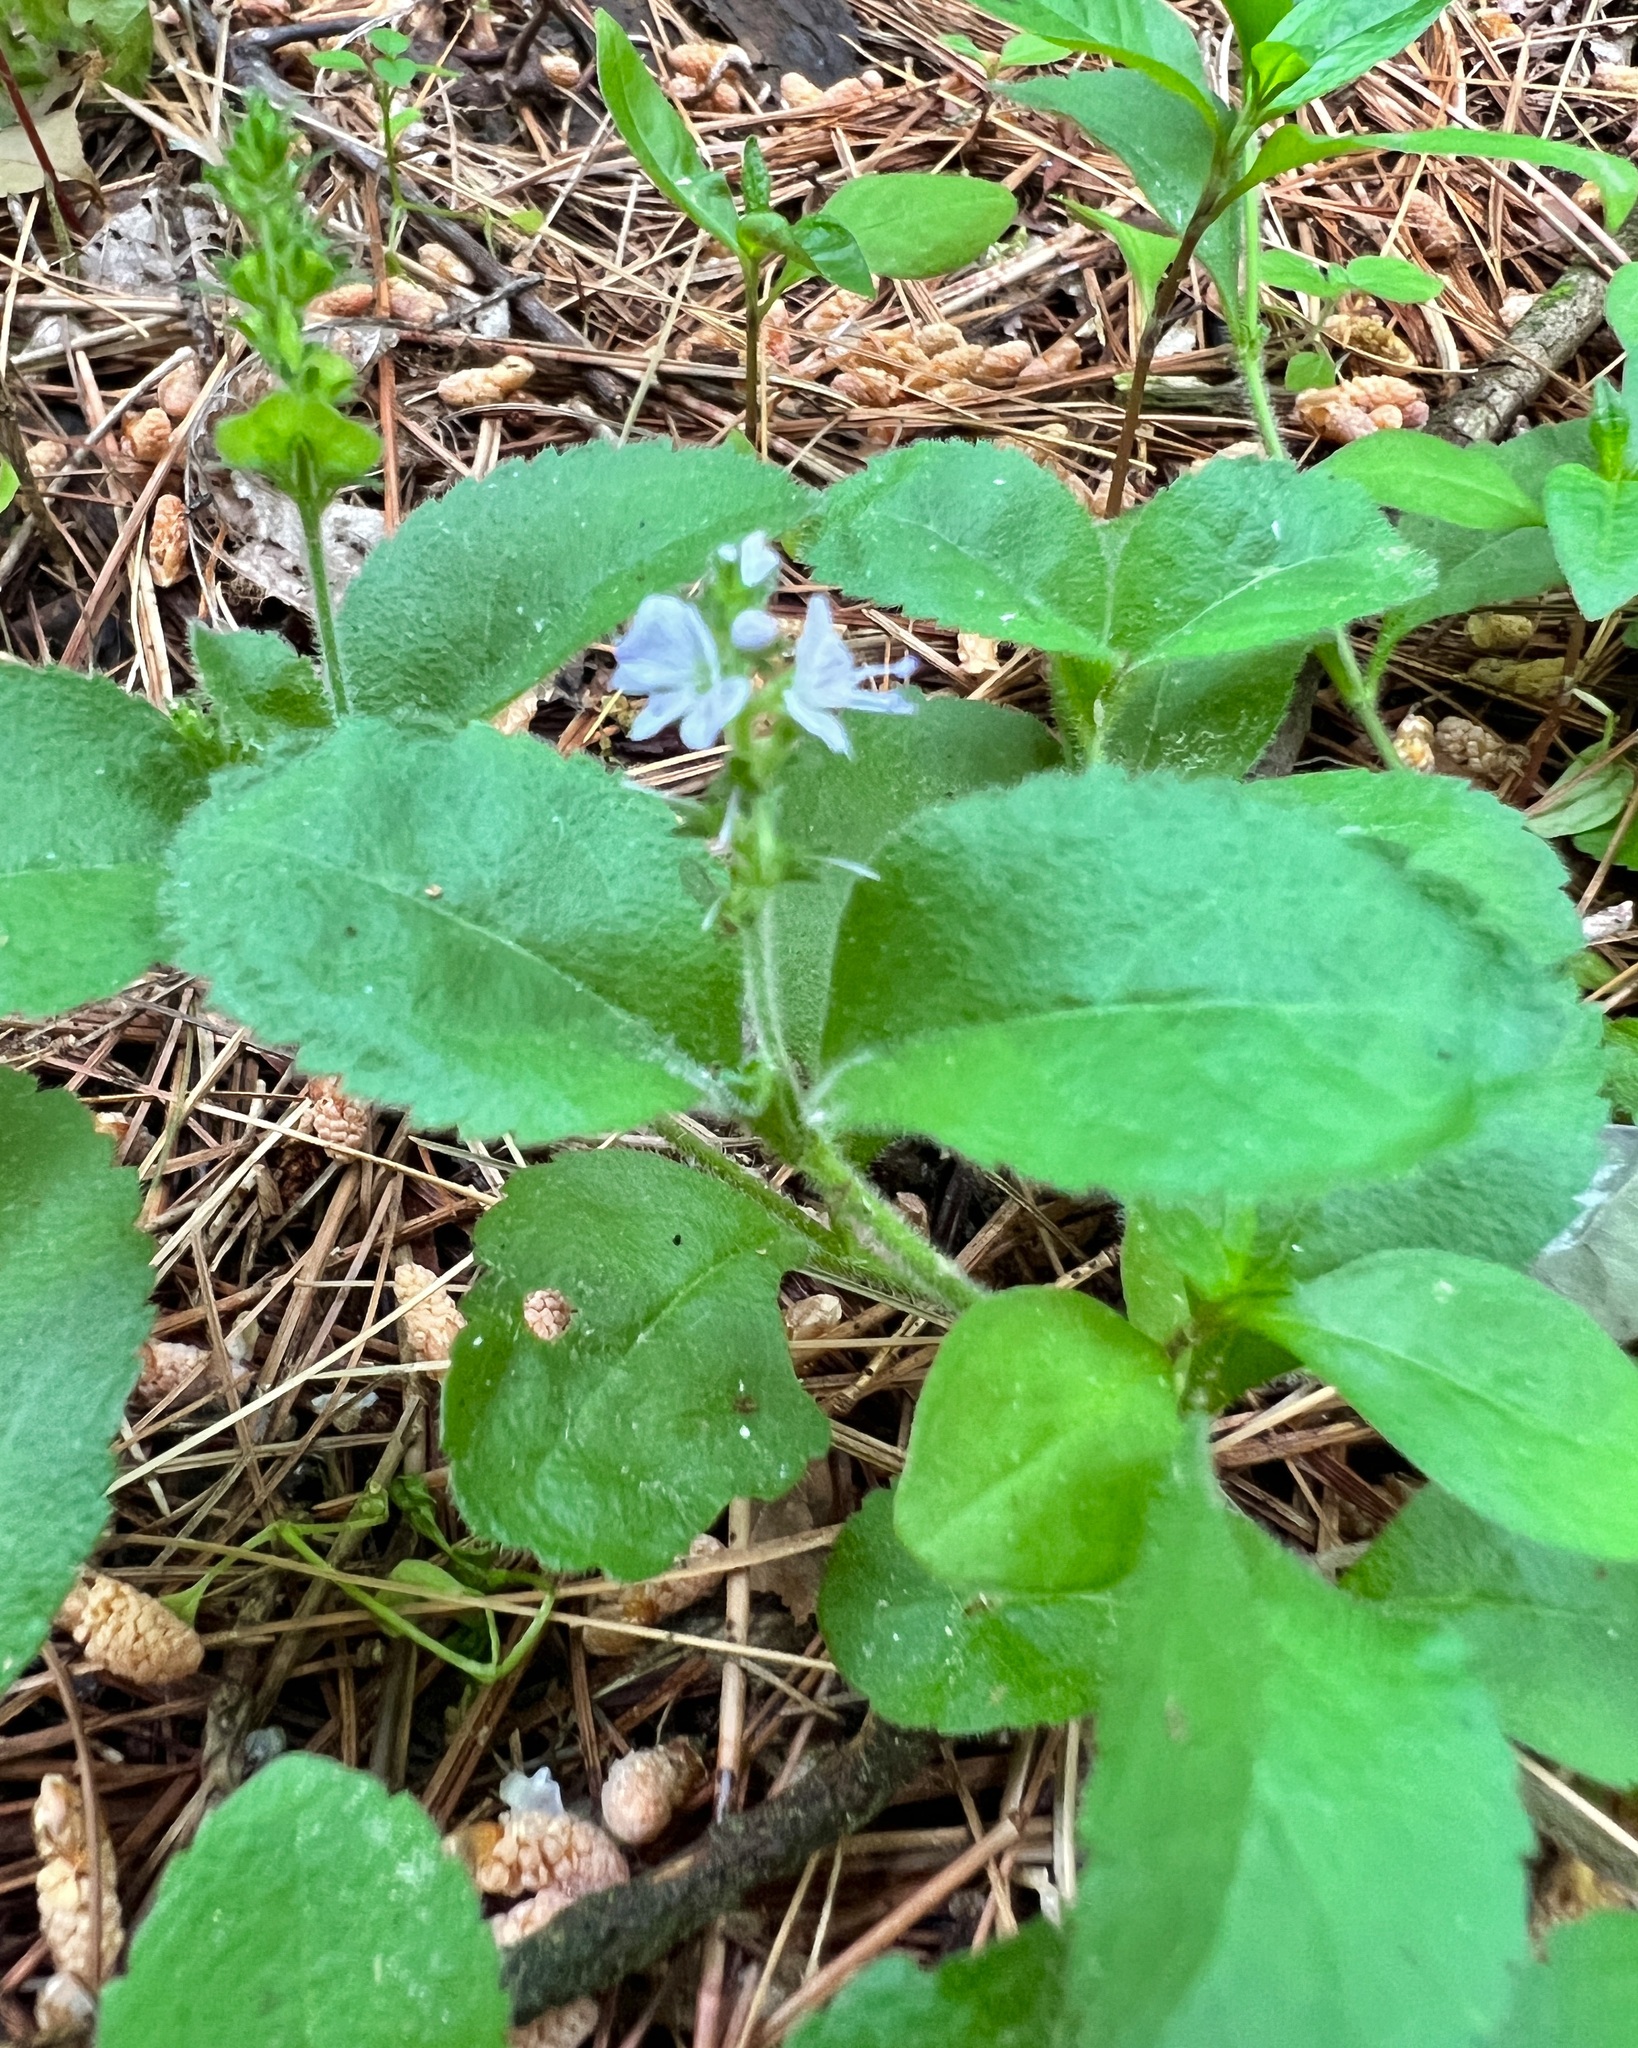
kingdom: Plantae
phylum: Tracheophyta
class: Magnoliopsida
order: Lamiales
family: Plantaginaceae
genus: Veronica
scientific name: Veronica officinalis
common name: Common speedwell
